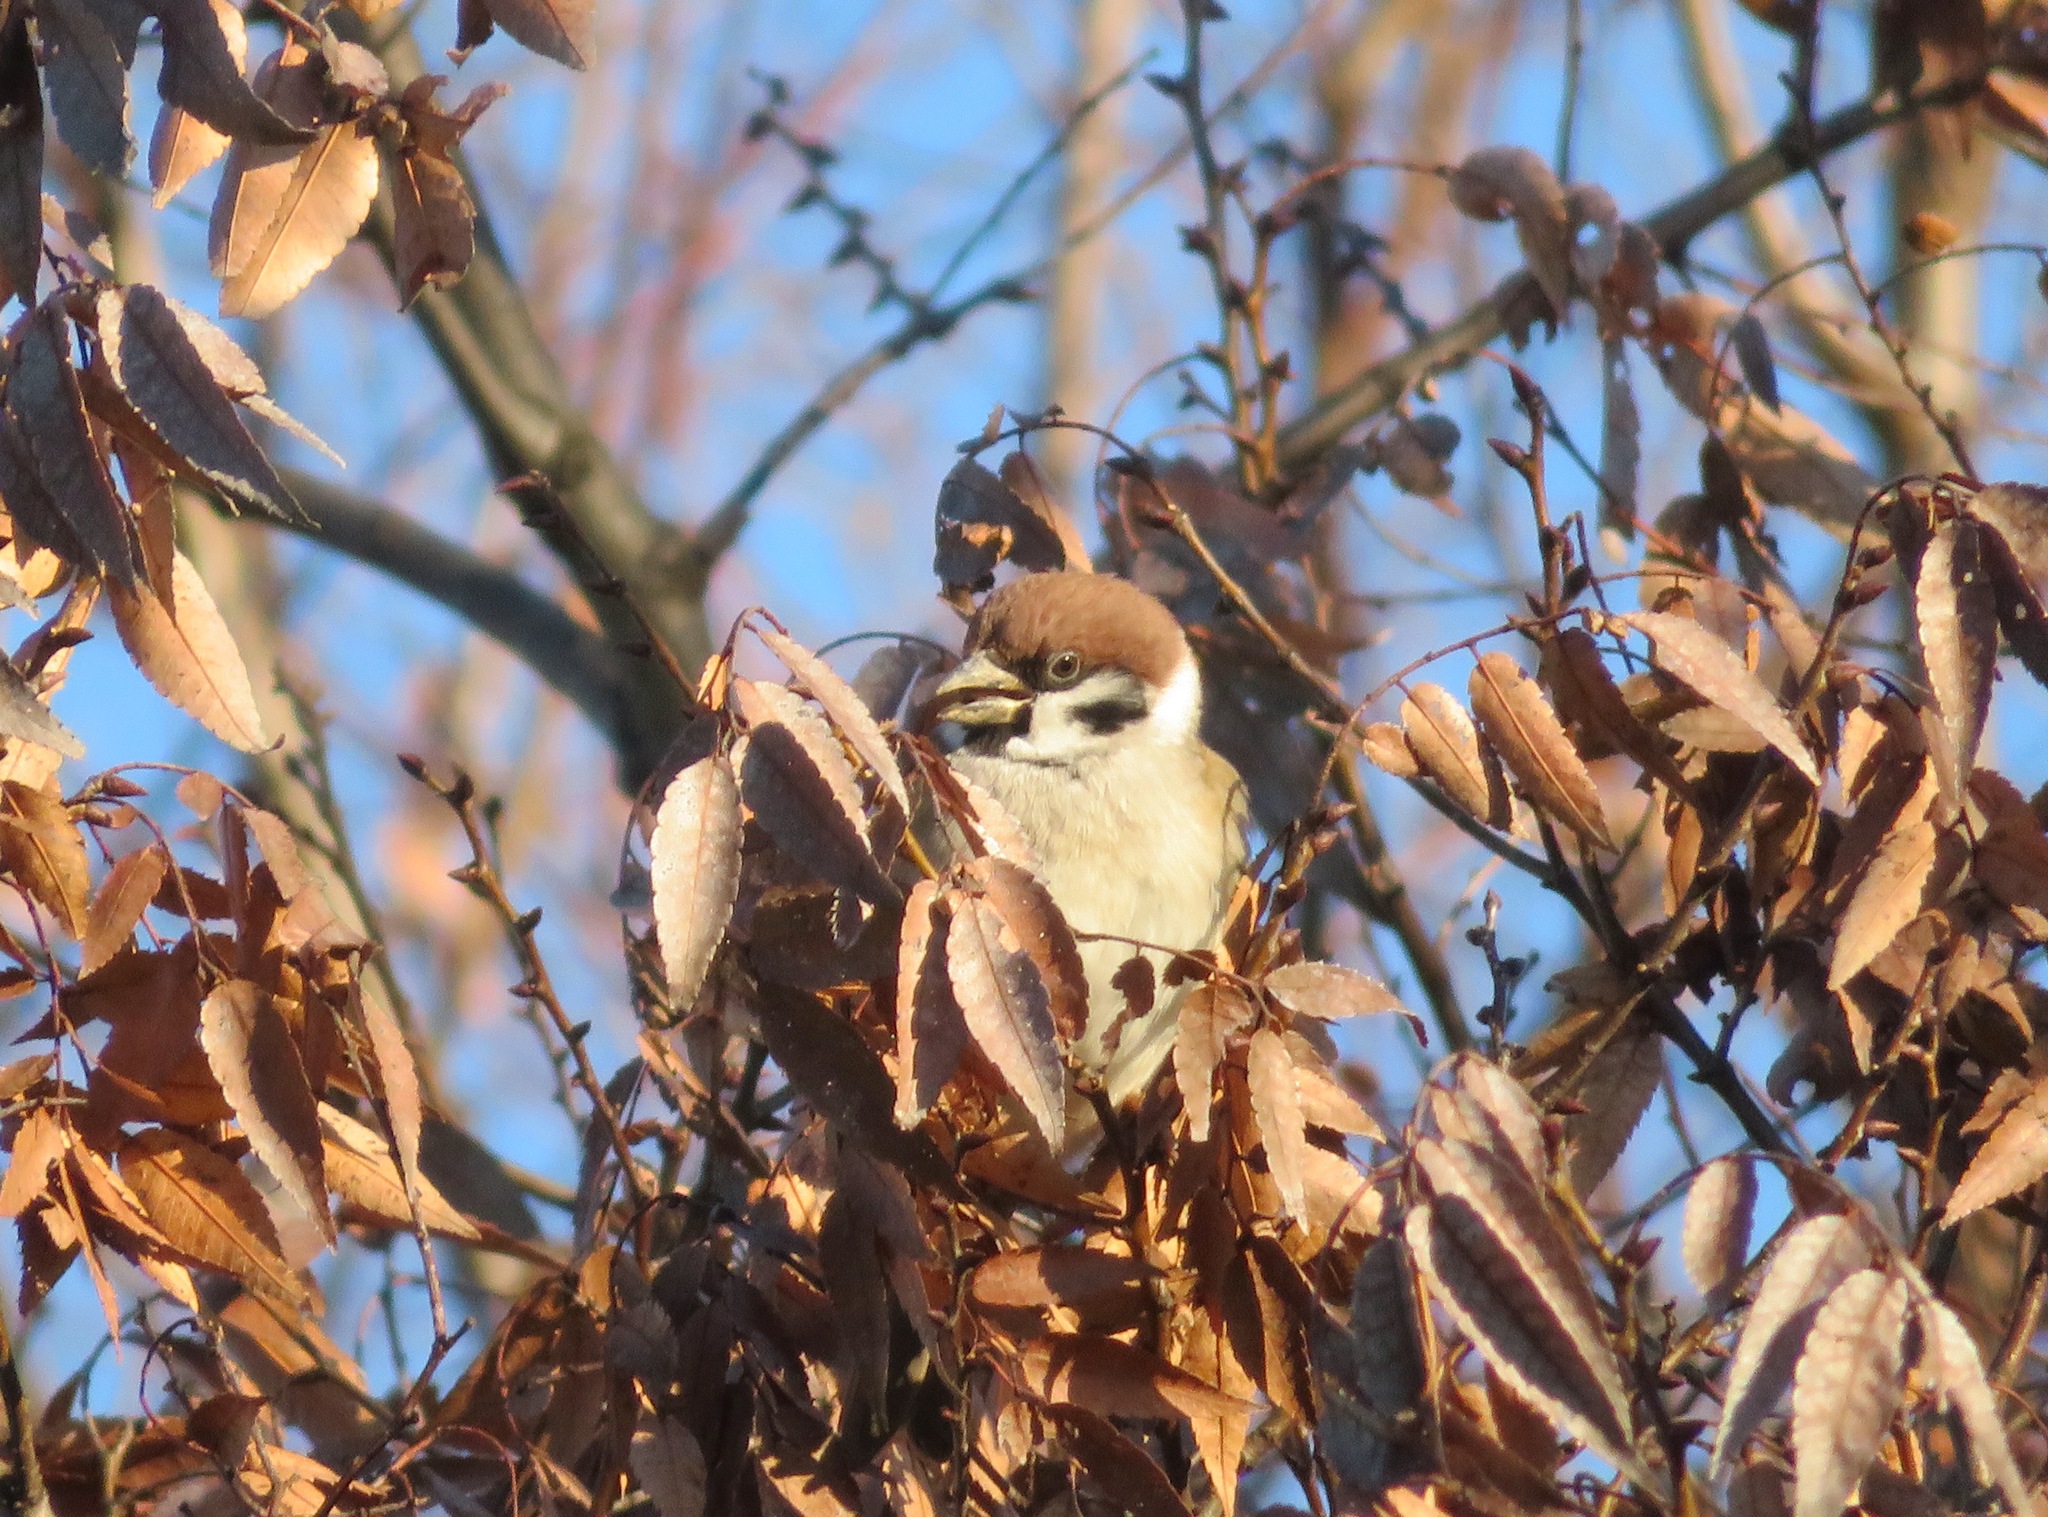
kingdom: Animalia
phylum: Chordata
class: Aves
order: Passeriformes
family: Passeridae
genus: Passer
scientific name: Passer montanus
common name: Eurasian tree sparrow
